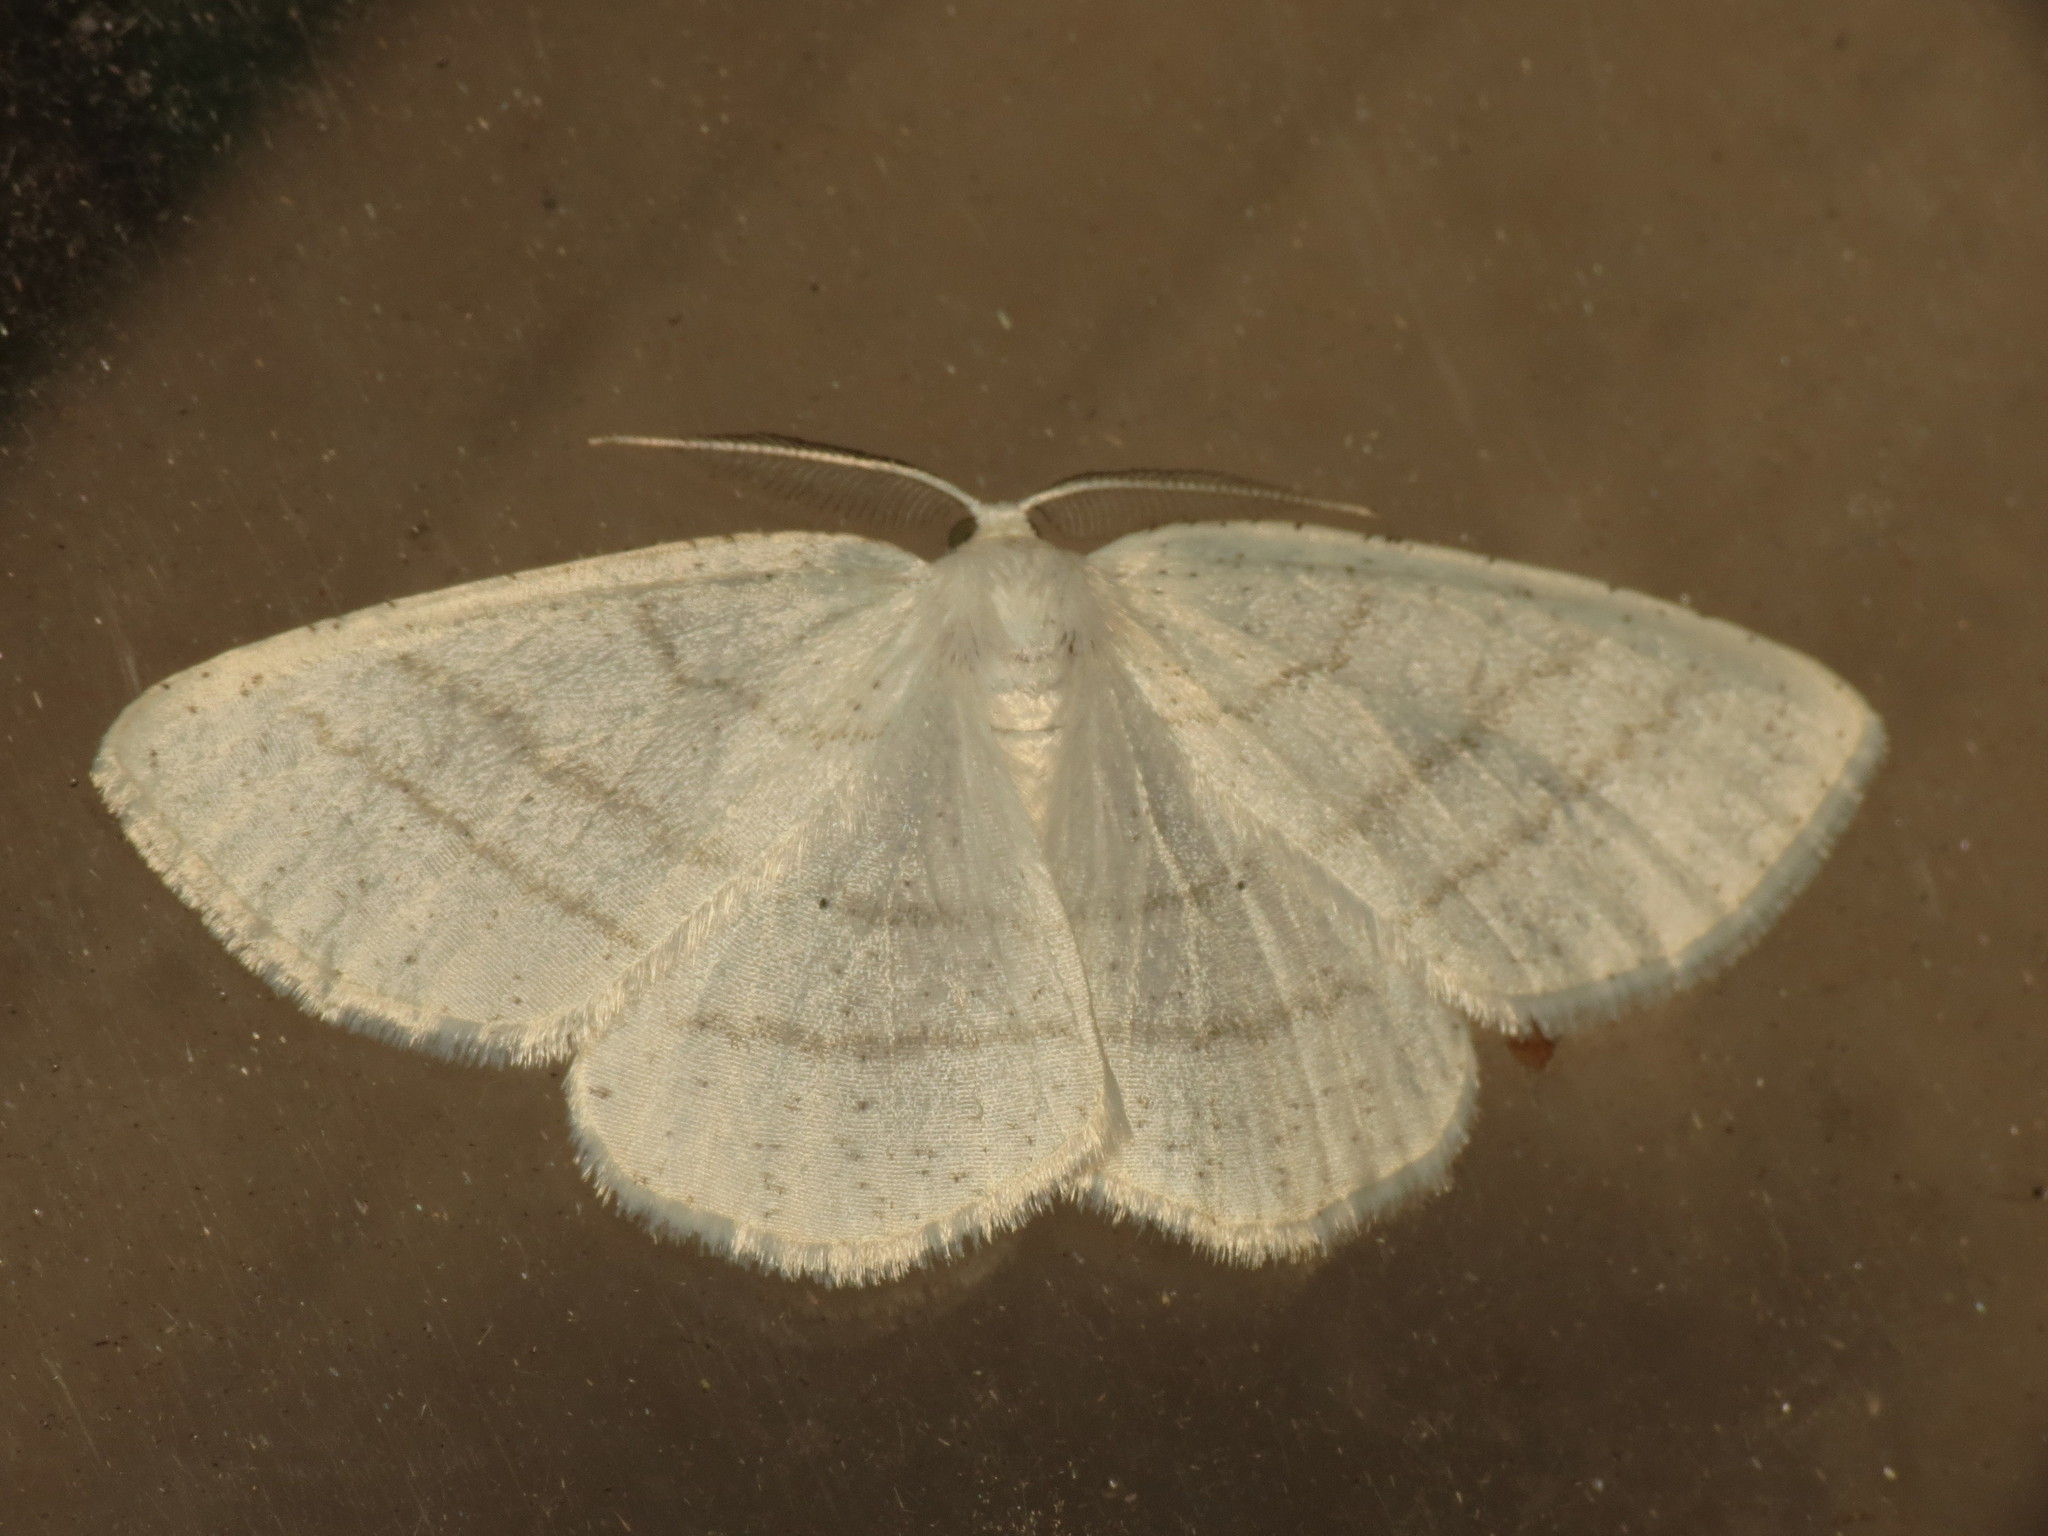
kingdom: Animalia
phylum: Arthropoda
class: Insecta
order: Lepidoptera
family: Geometridae
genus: Cabera
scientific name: Cabera pusaria
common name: Common white wave
